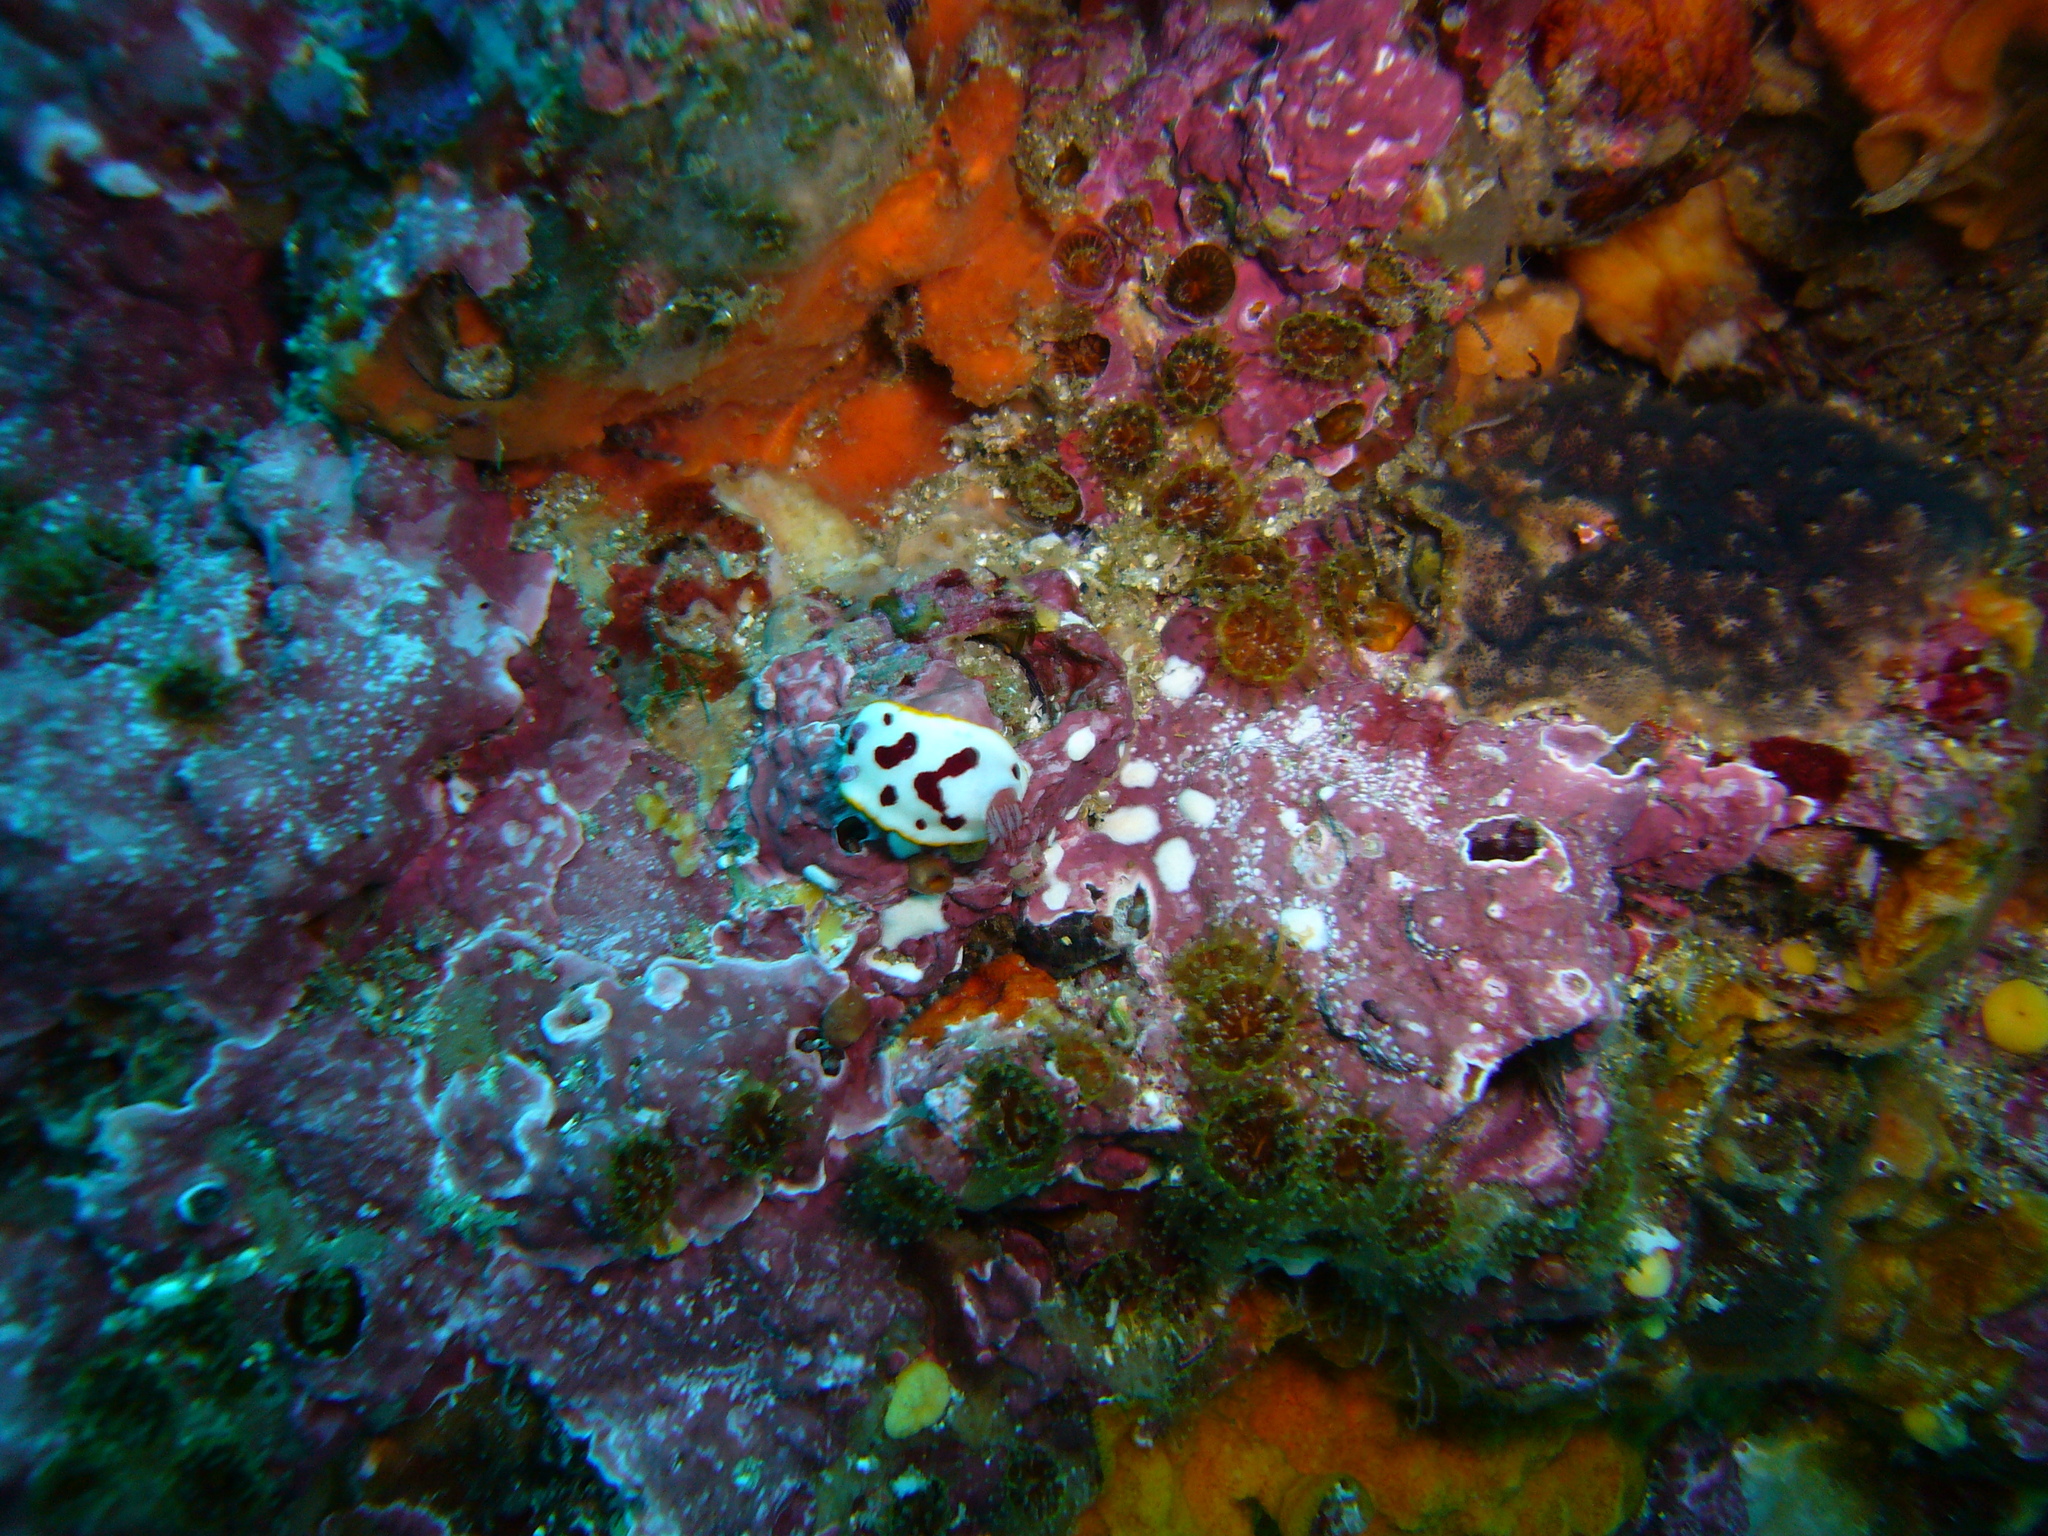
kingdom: Animalia
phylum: Mollusca
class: Gastropoda
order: Nudibranchia
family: Chromodorididae
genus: Goniobranchus
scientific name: Goniobranchus splendidus
